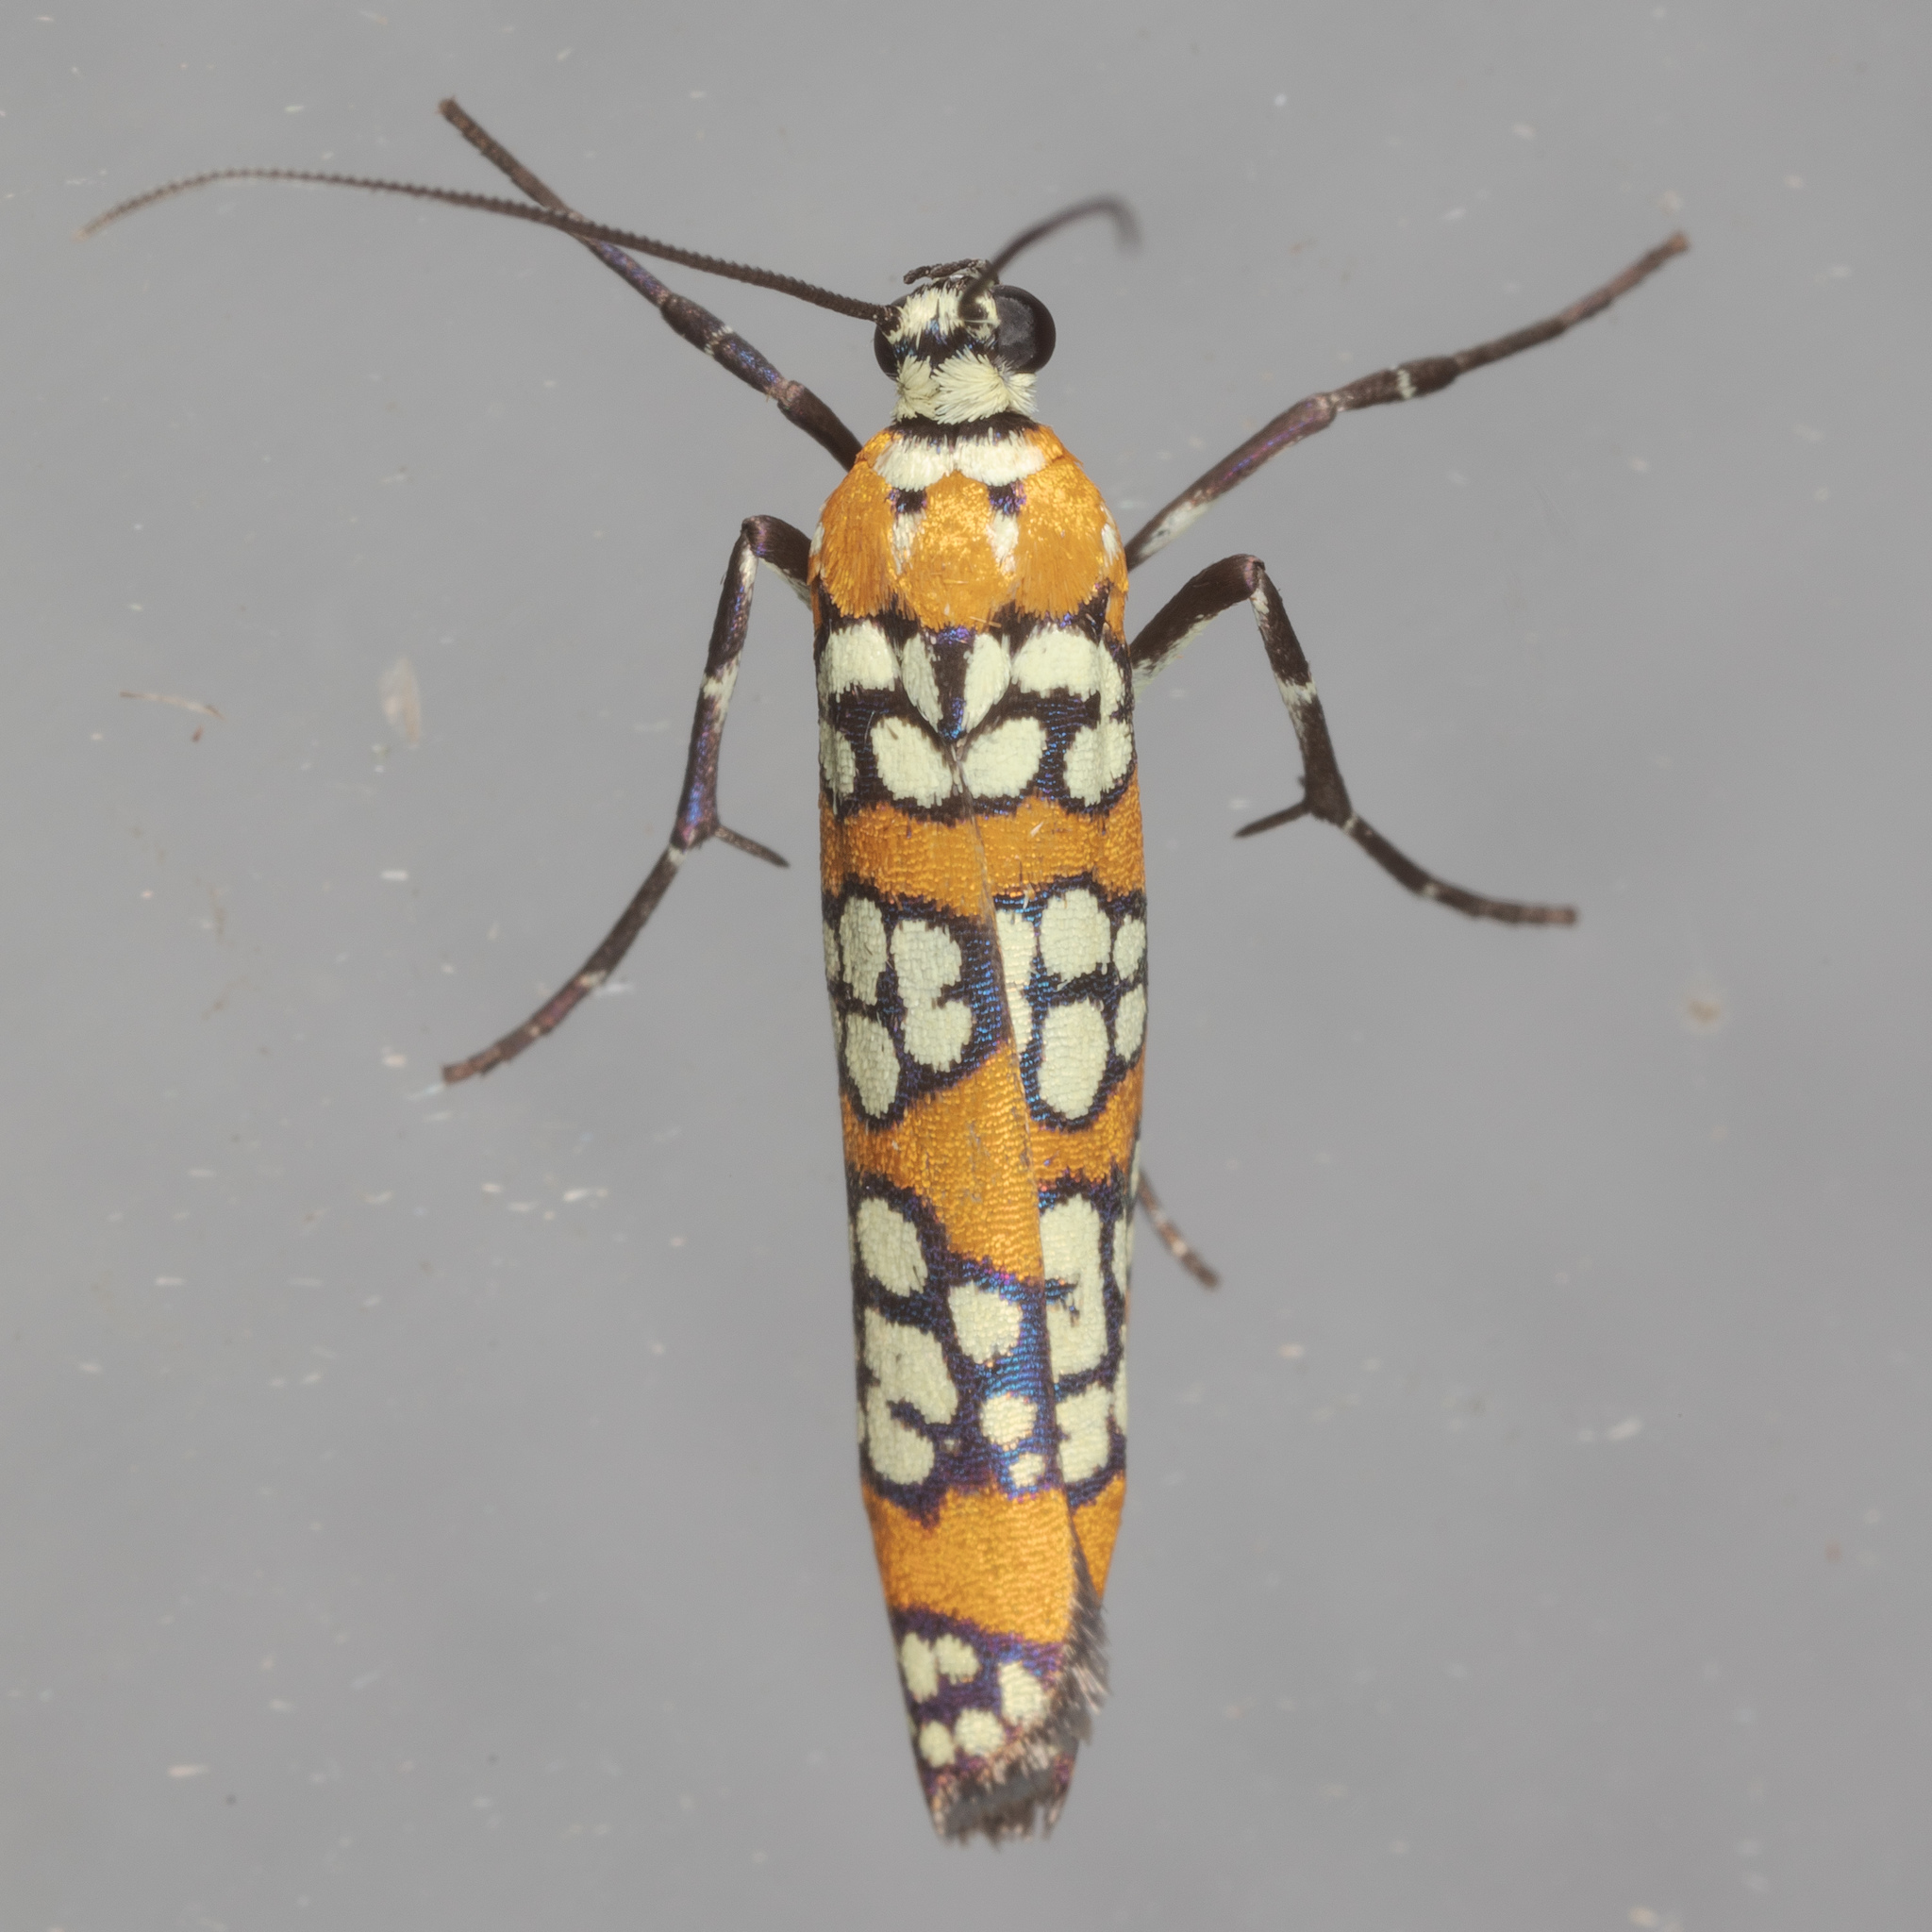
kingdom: Animalia
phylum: Arthropoda
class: Insecta
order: Lepidoptera
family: Attevidae
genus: Atteva
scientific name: Atteva punctella
